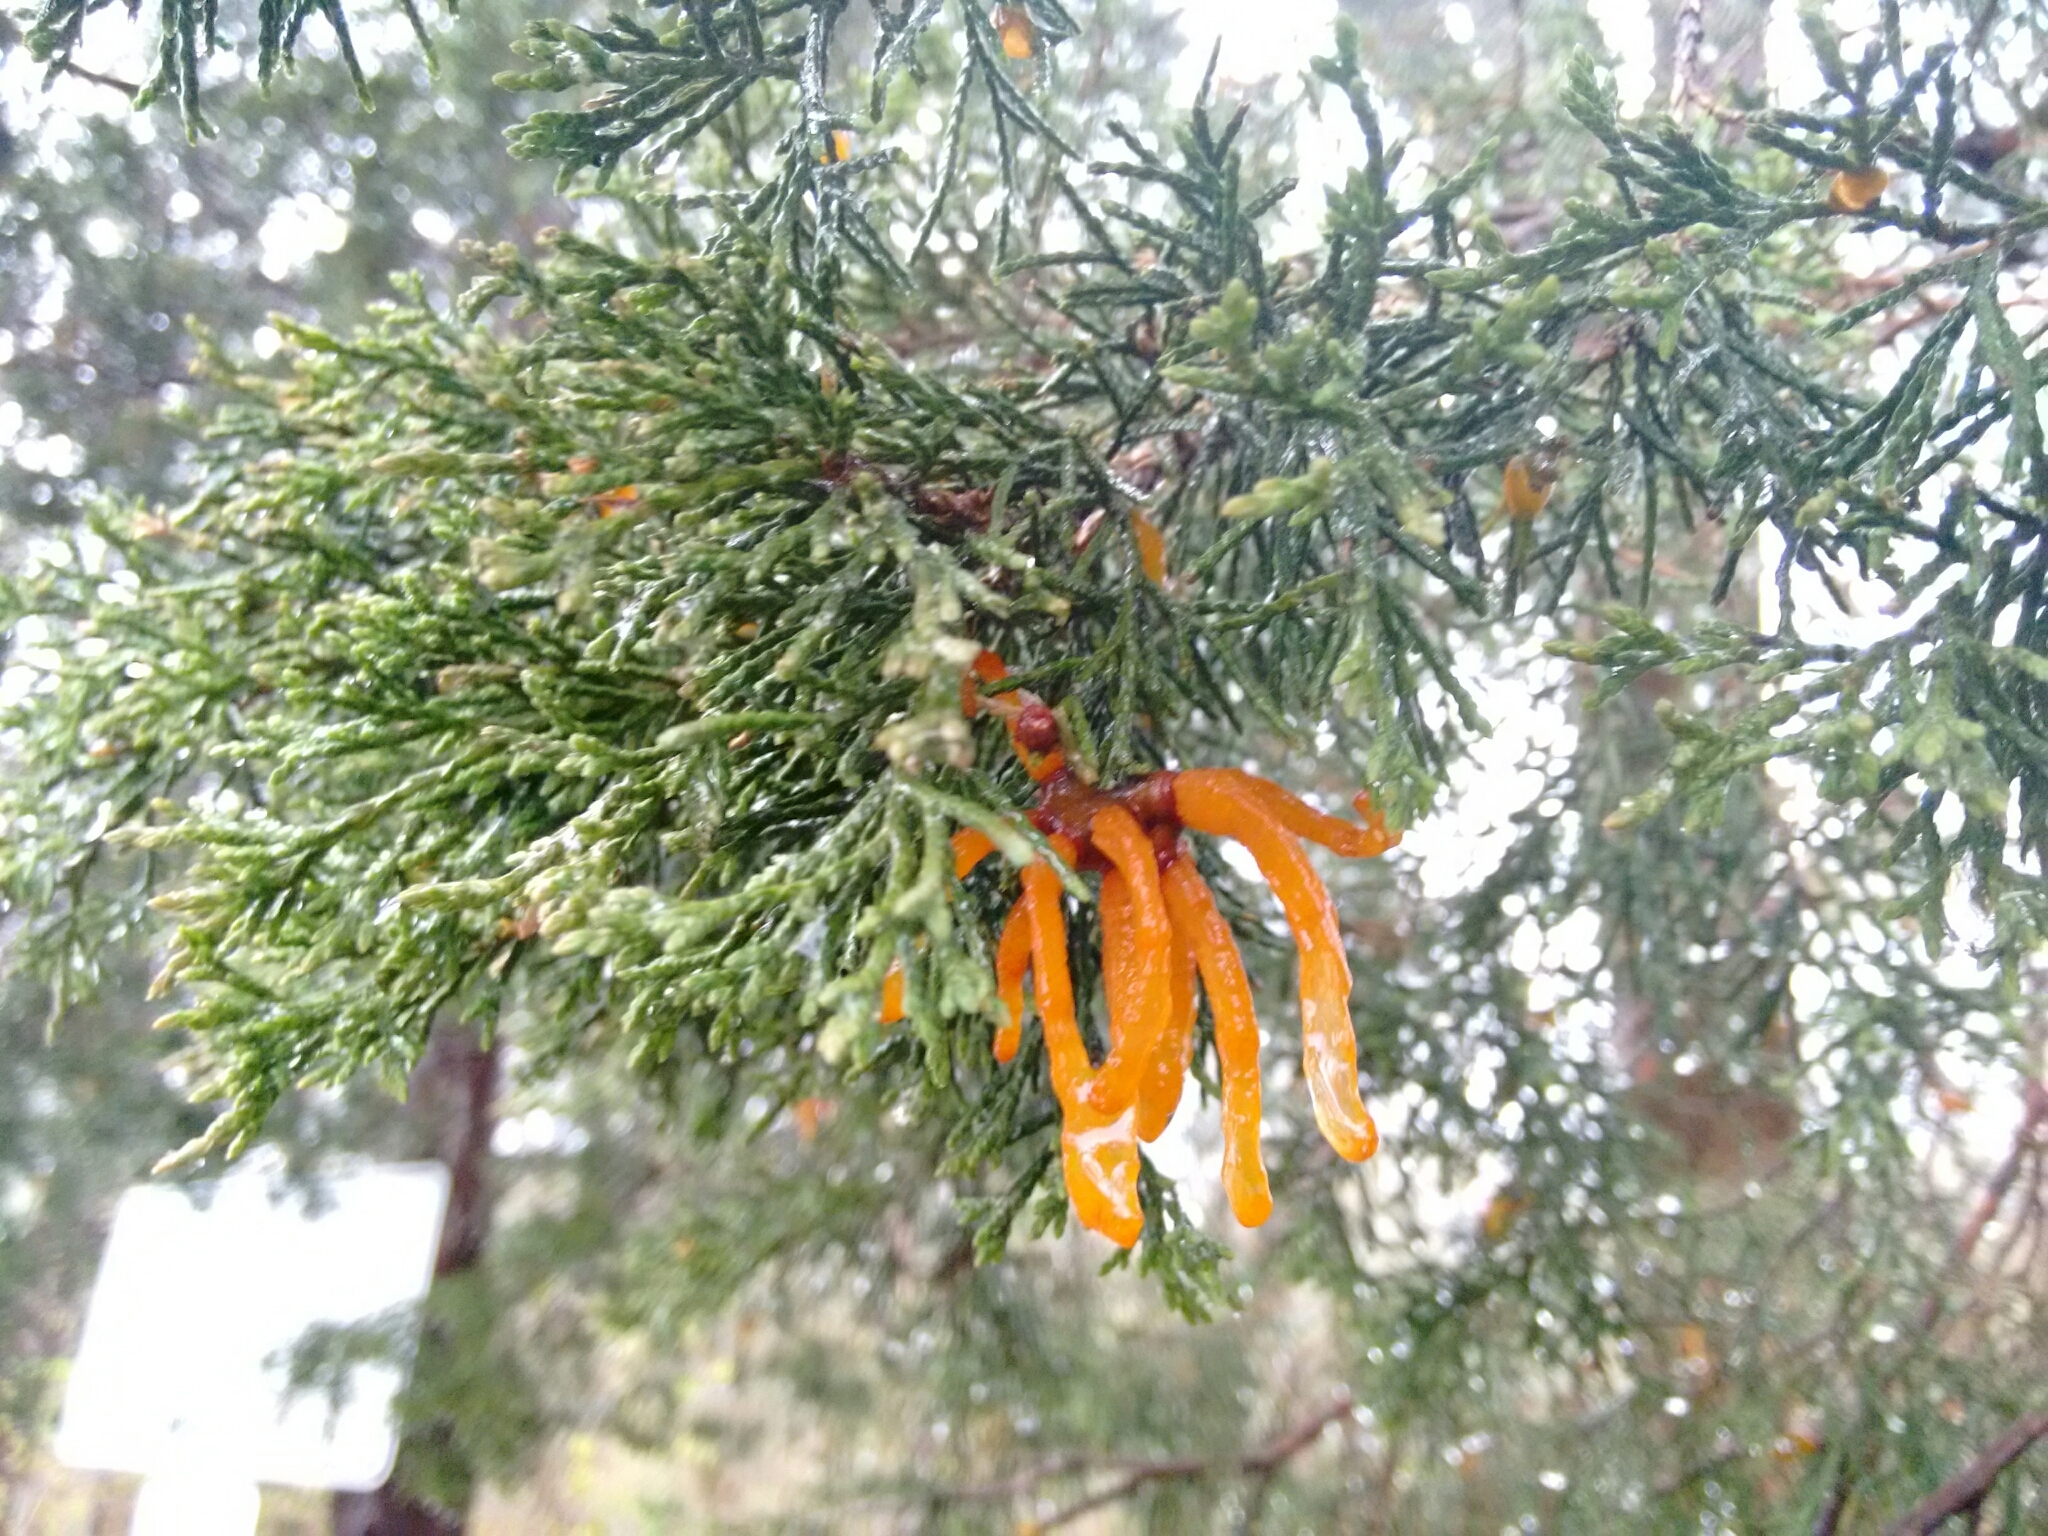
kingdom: Fungi
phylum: Basidiomycota
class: Pucciniomycetes
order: Pucciniales
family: Gymnosporangiaceae
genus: Gymnosporangium
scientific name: Gymnosporangium juniperi-virginianae
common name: Juniper-apple rust
